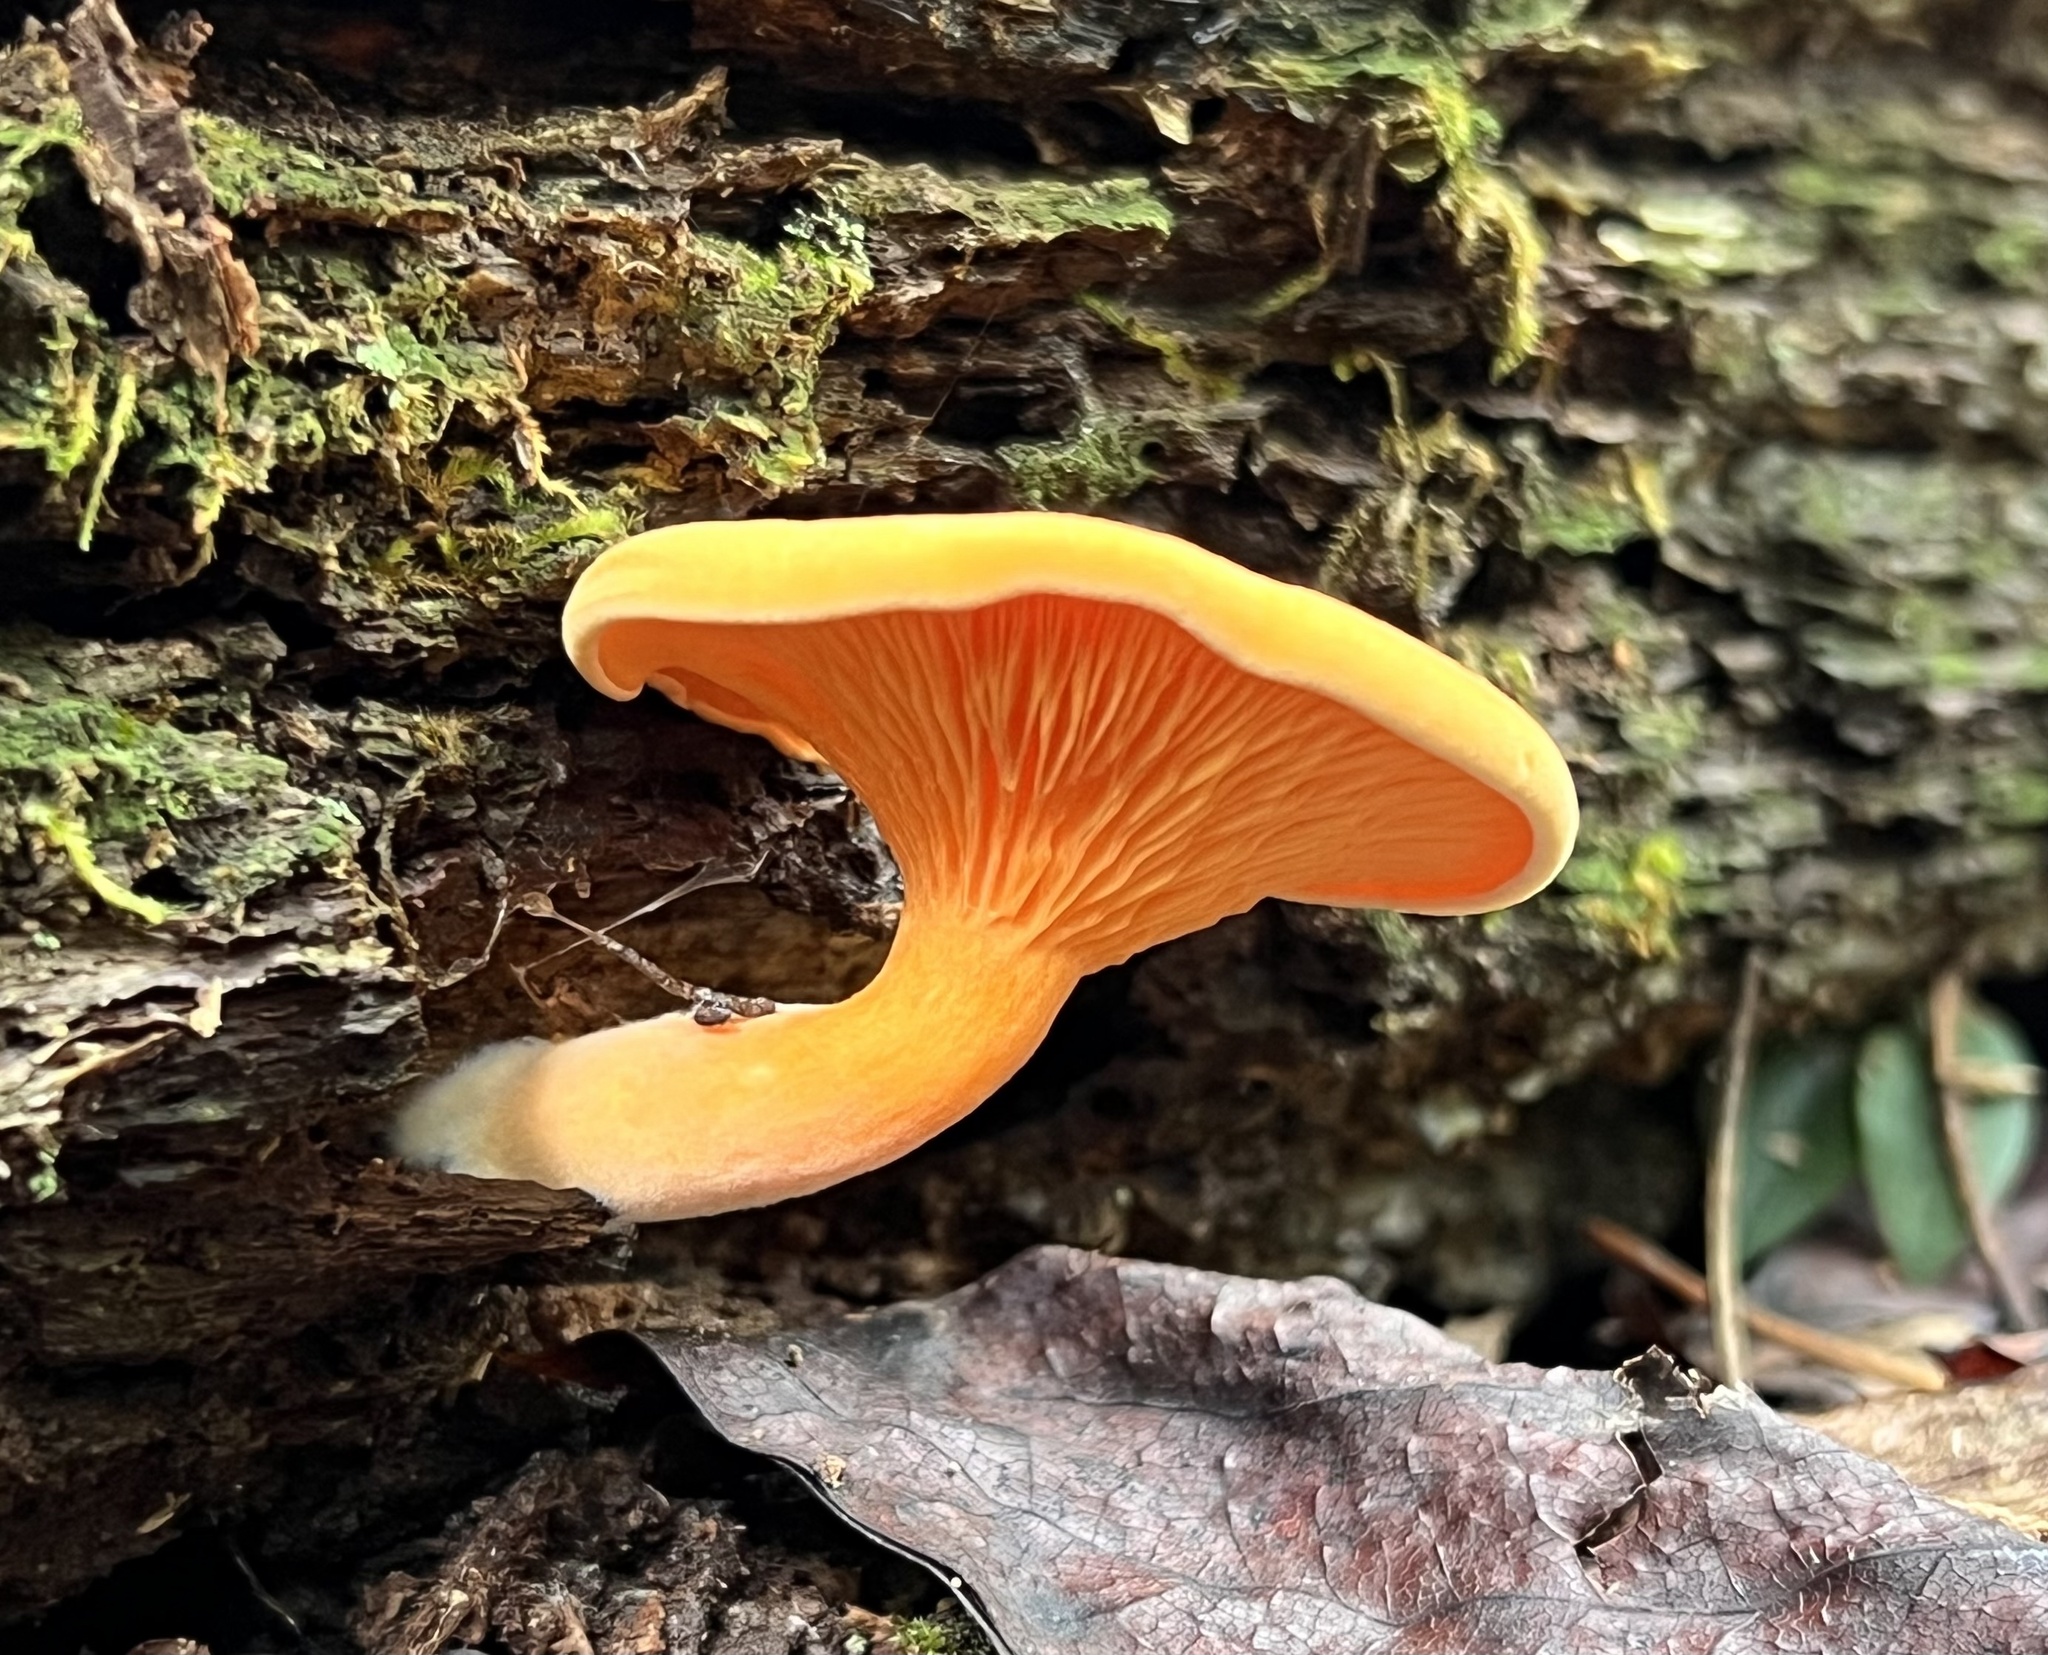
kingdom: Fungi
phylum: Basidiomycota
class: Agaricomycetes
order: Boletales
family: Hygrophoropsidaceae
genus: Hygrophoropsis
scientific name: Hygrophoropsis aurantiaca
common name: False chanterelle
